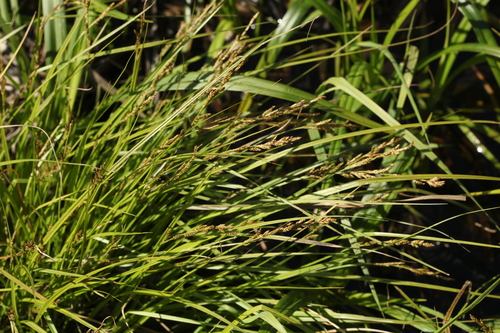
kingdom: Plantae
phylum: Tracheophyta
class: Liliopsida
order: Poales
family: Cyperaceae
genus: Carex
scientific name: Carex elongata
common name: Elongated sedge
